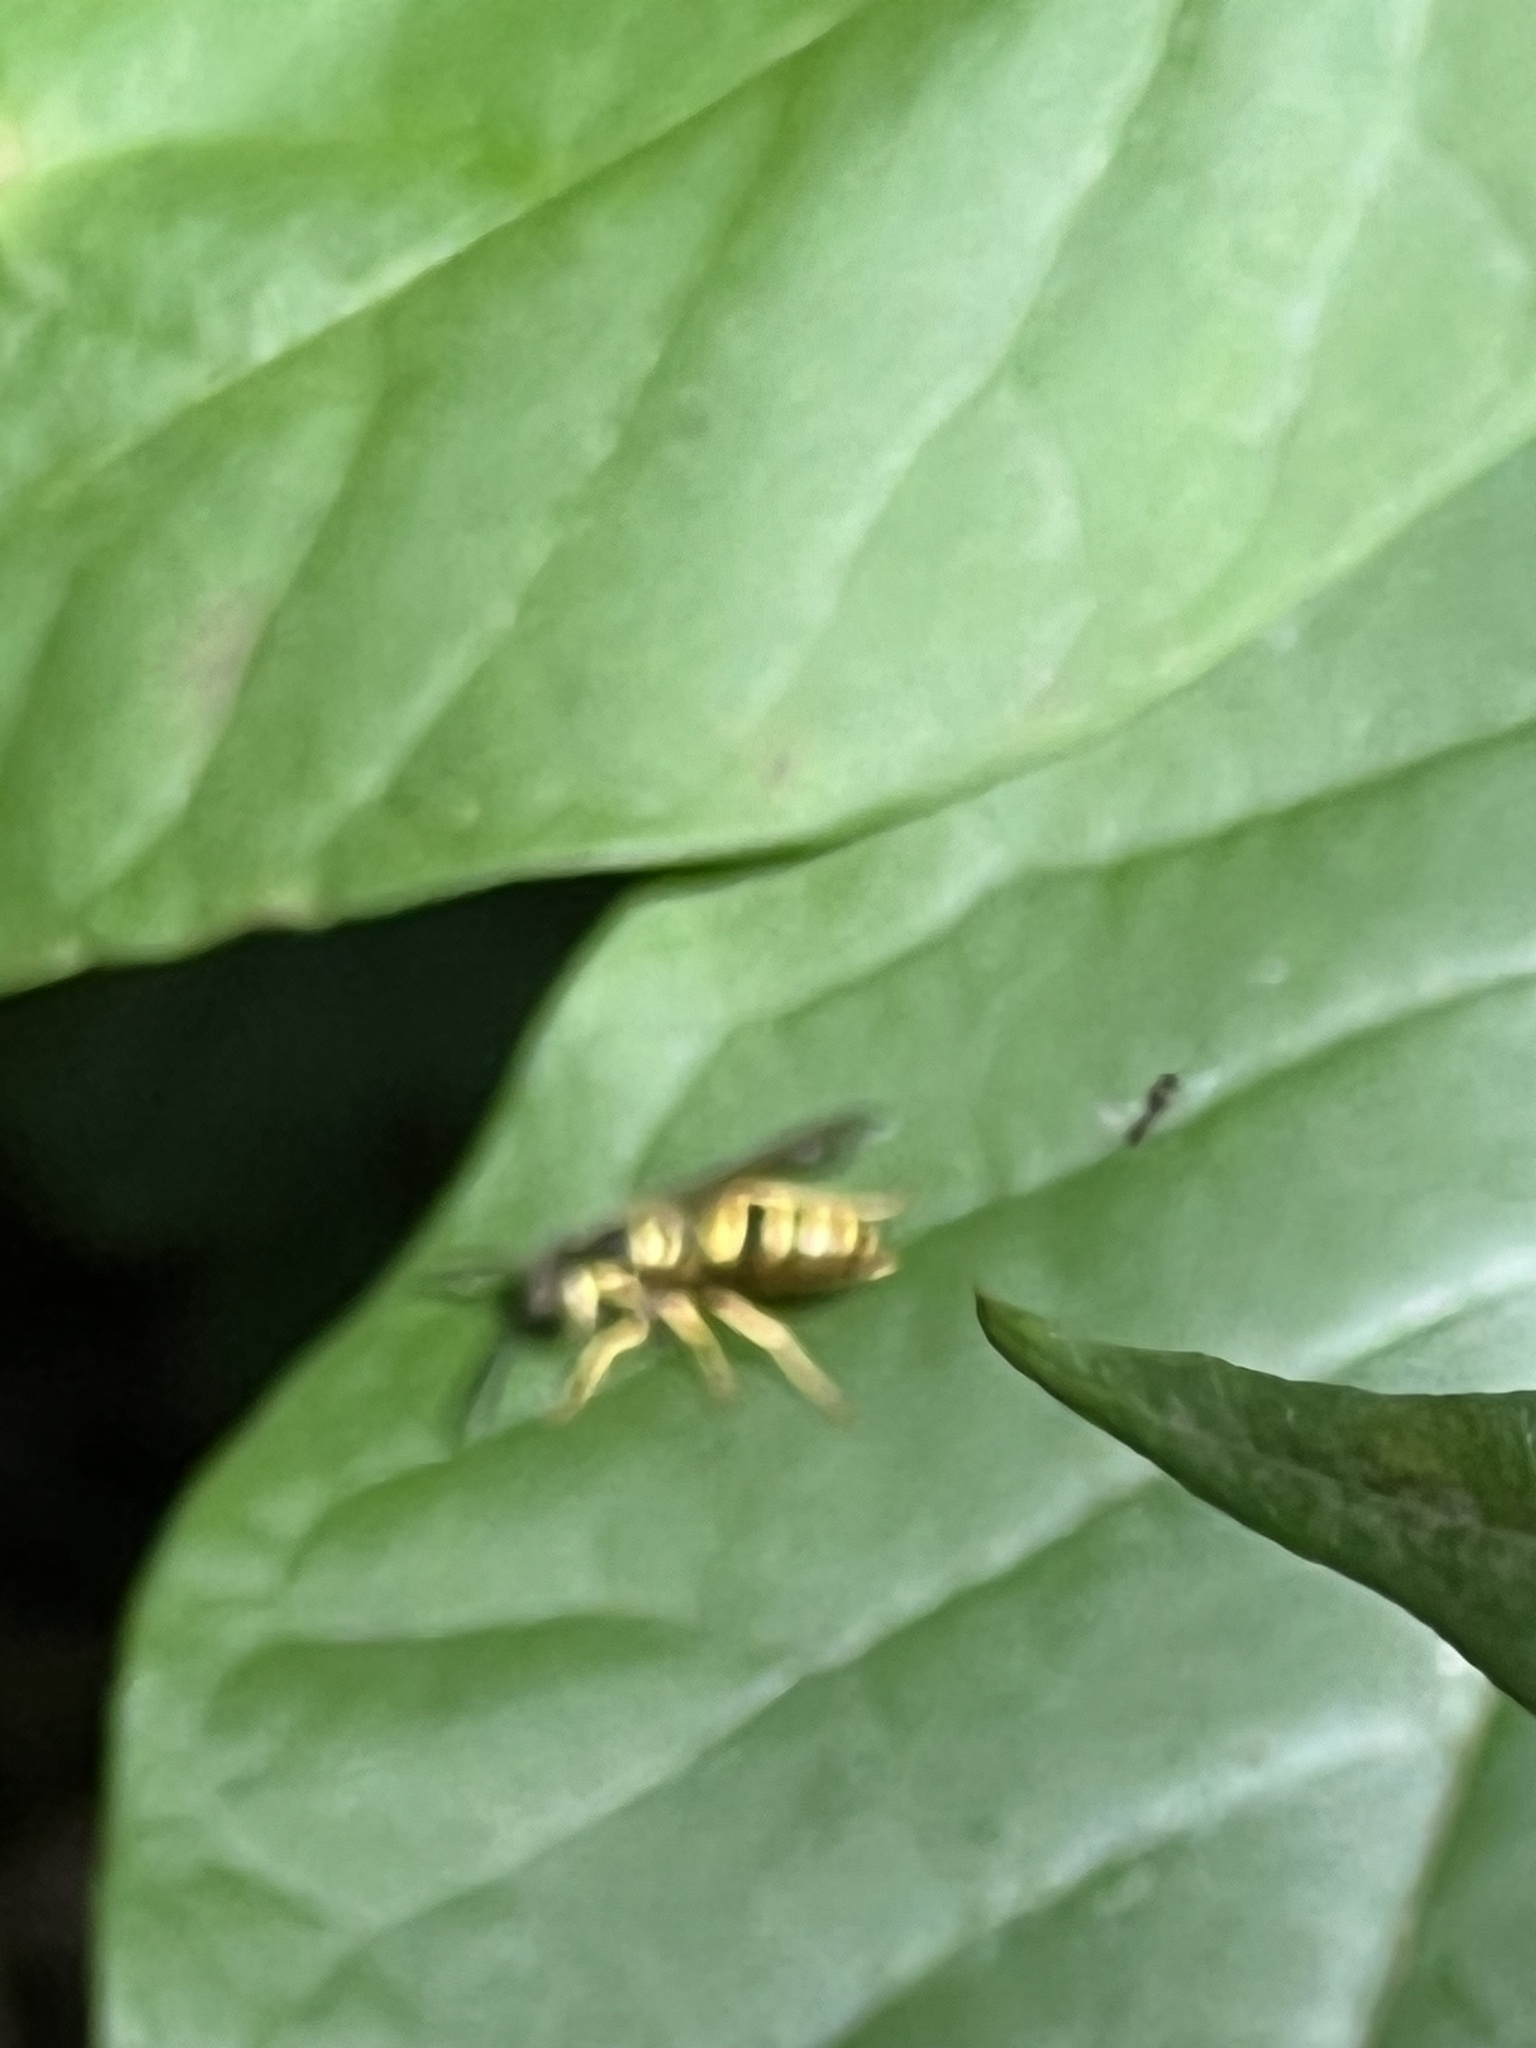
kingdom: Animalia
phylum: Arthropoda
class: Insecta
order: Hymenoptera
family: Vespidae
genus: Vespula
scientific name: Vespula maculifrons
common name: Eastern yellowjacket
